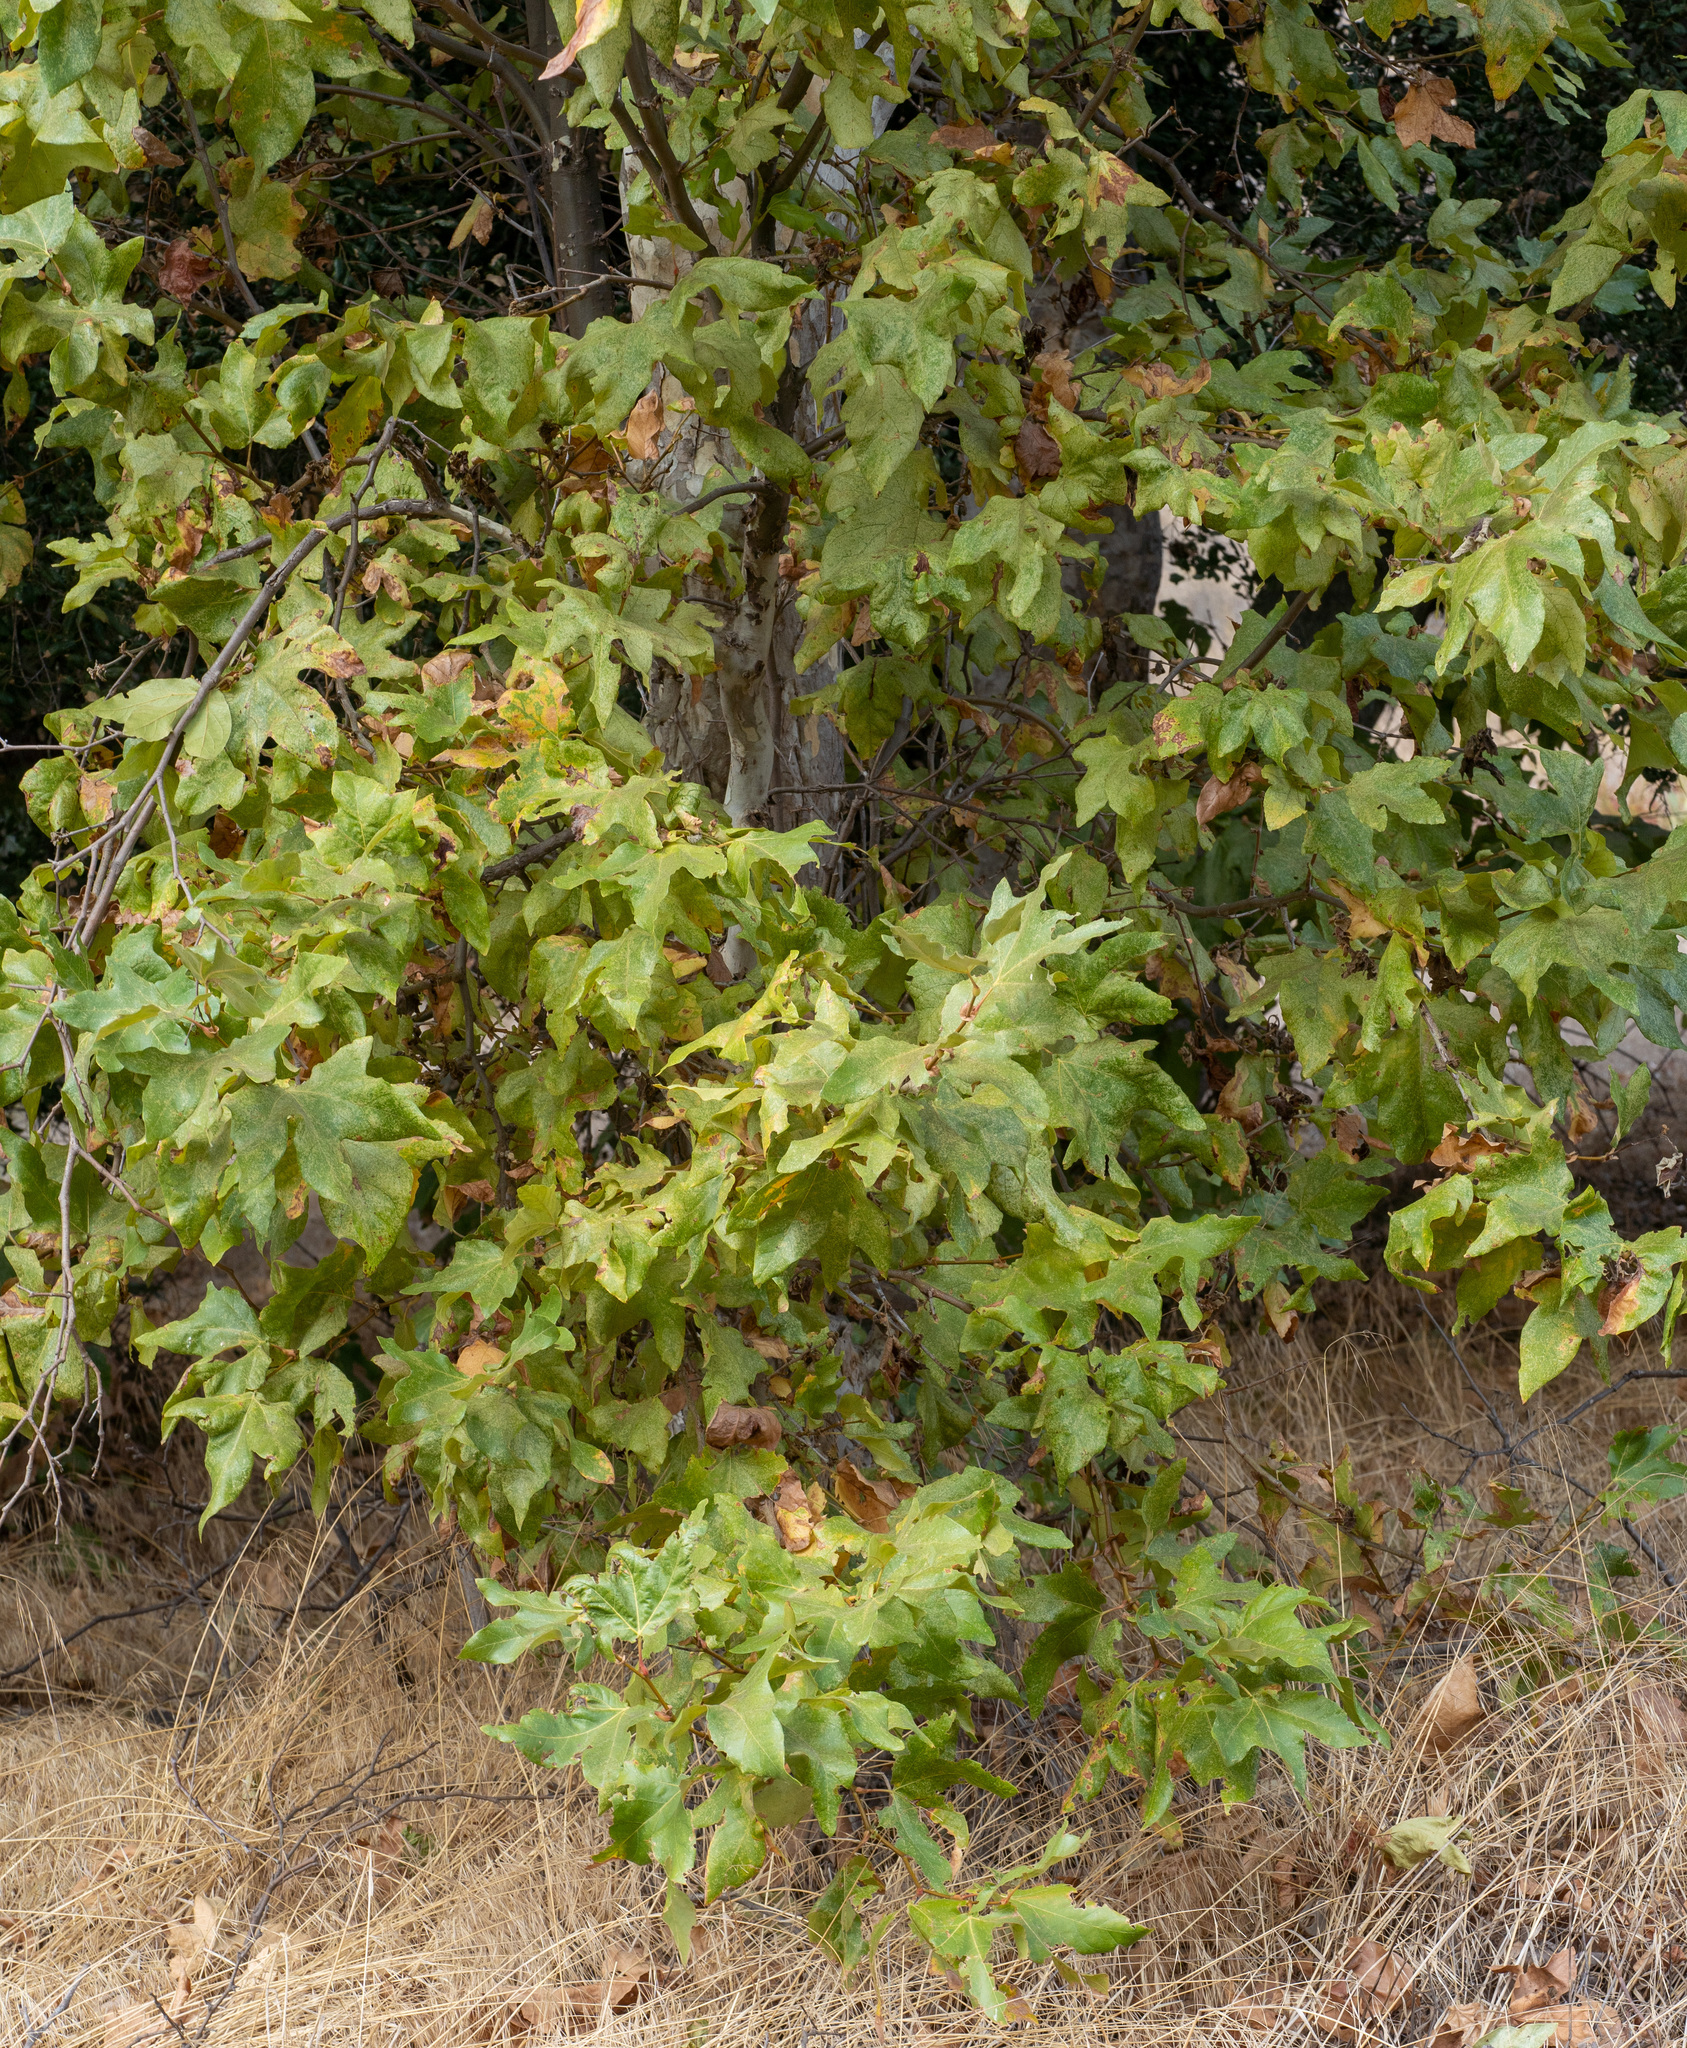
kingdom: Plantae
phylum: Tracheophyta
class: Magnoliopsida
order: Proteales
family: Platanaceae
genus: Platanus
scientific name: Platanus racemosa
